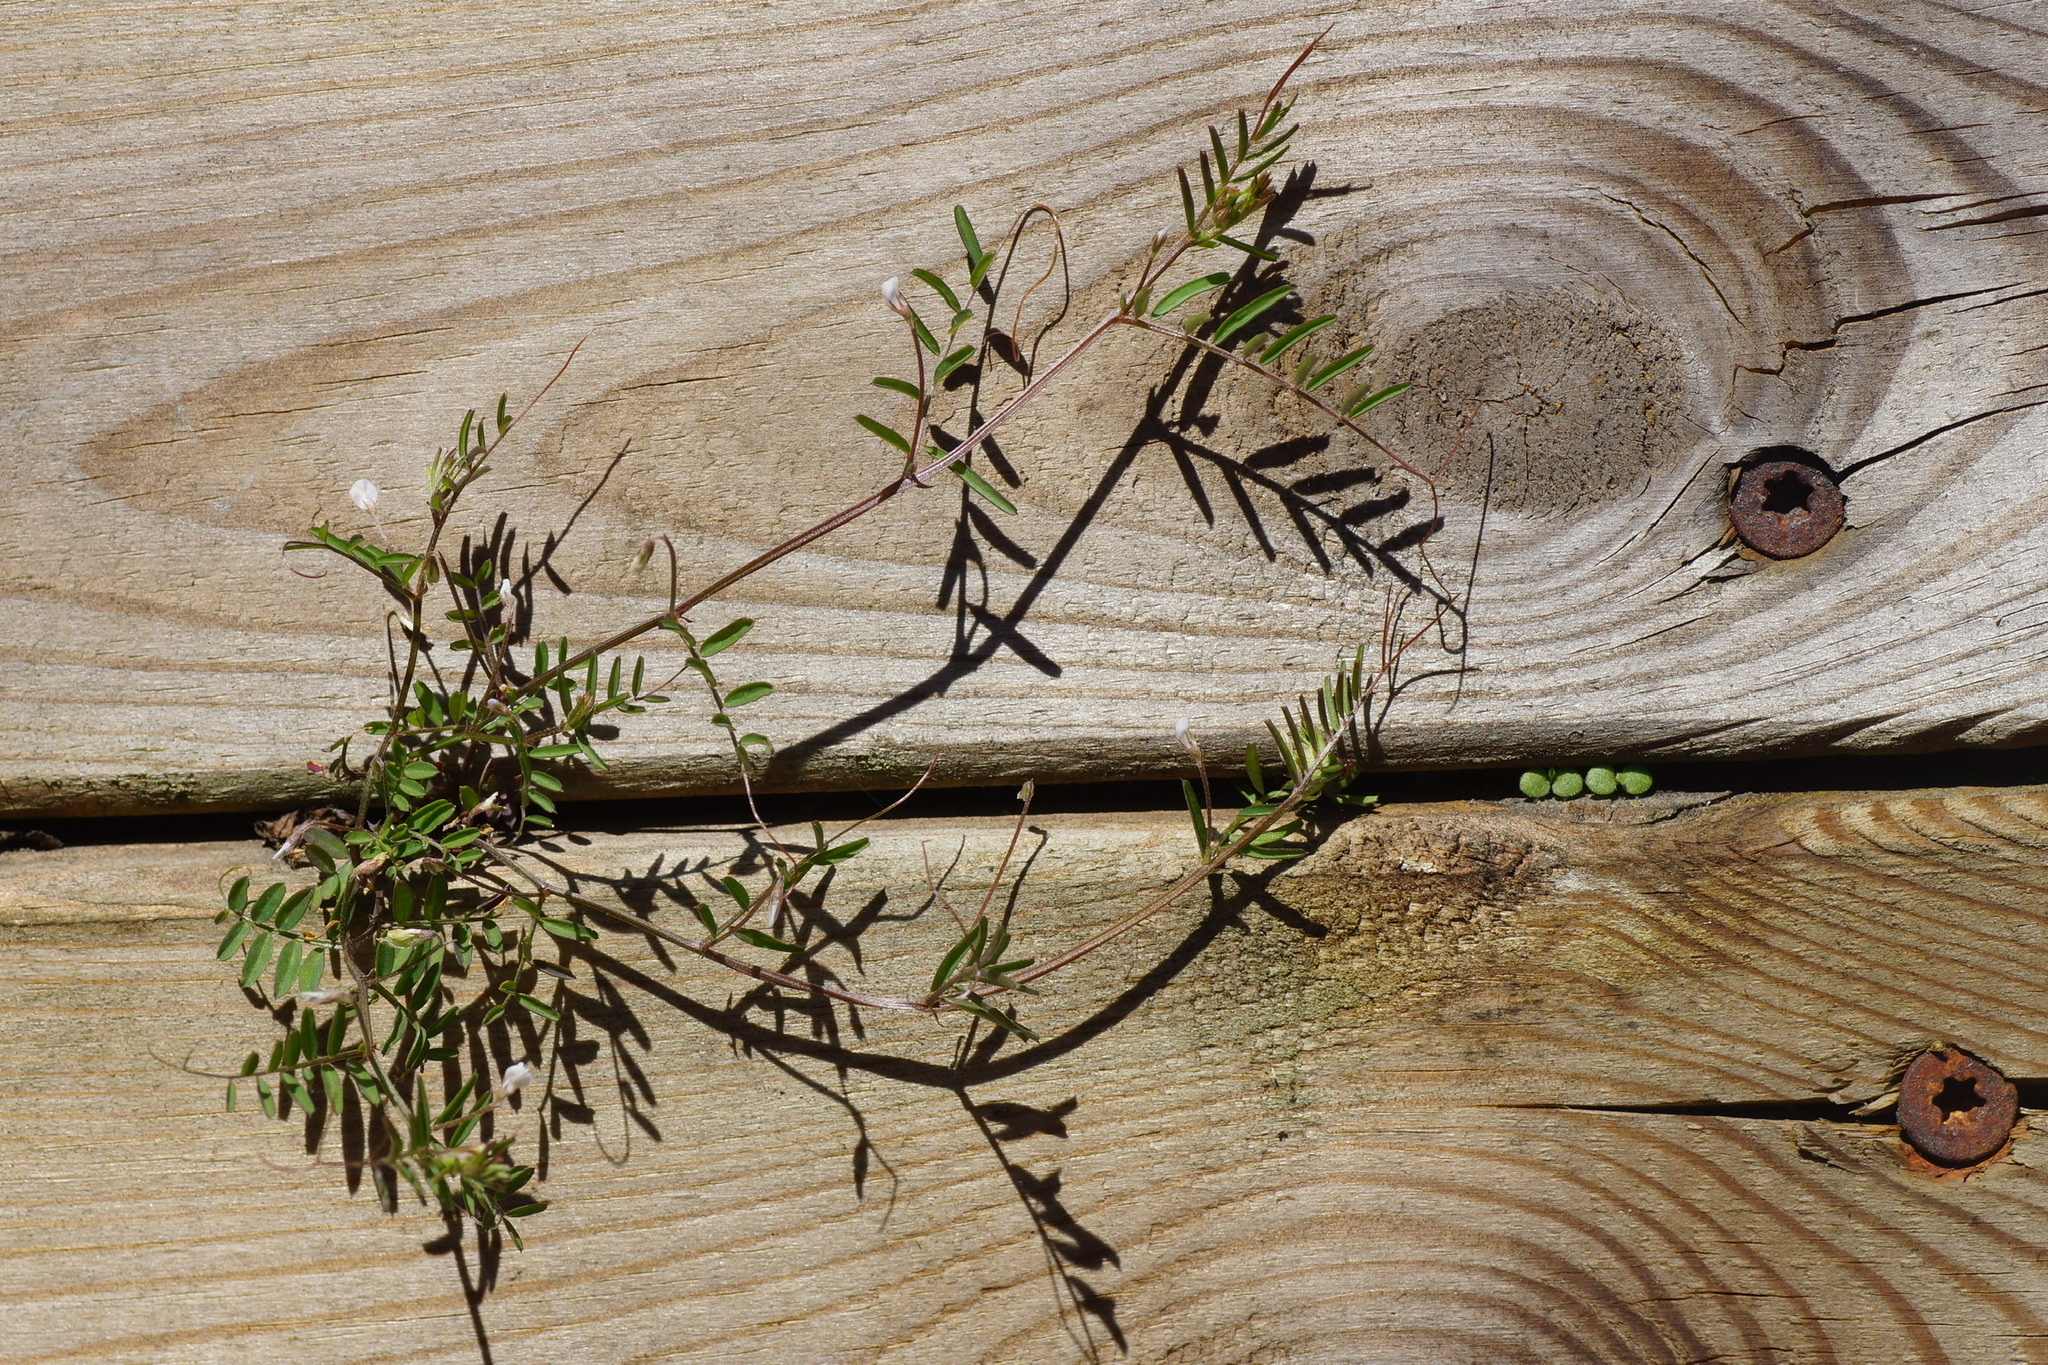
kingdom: Plantae
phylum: Tracheophyta
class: Magnoliopsida
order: Fabales
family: Fabaceae
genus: Vicia
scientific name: Vicia hirsuta
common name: Tiny vetch
